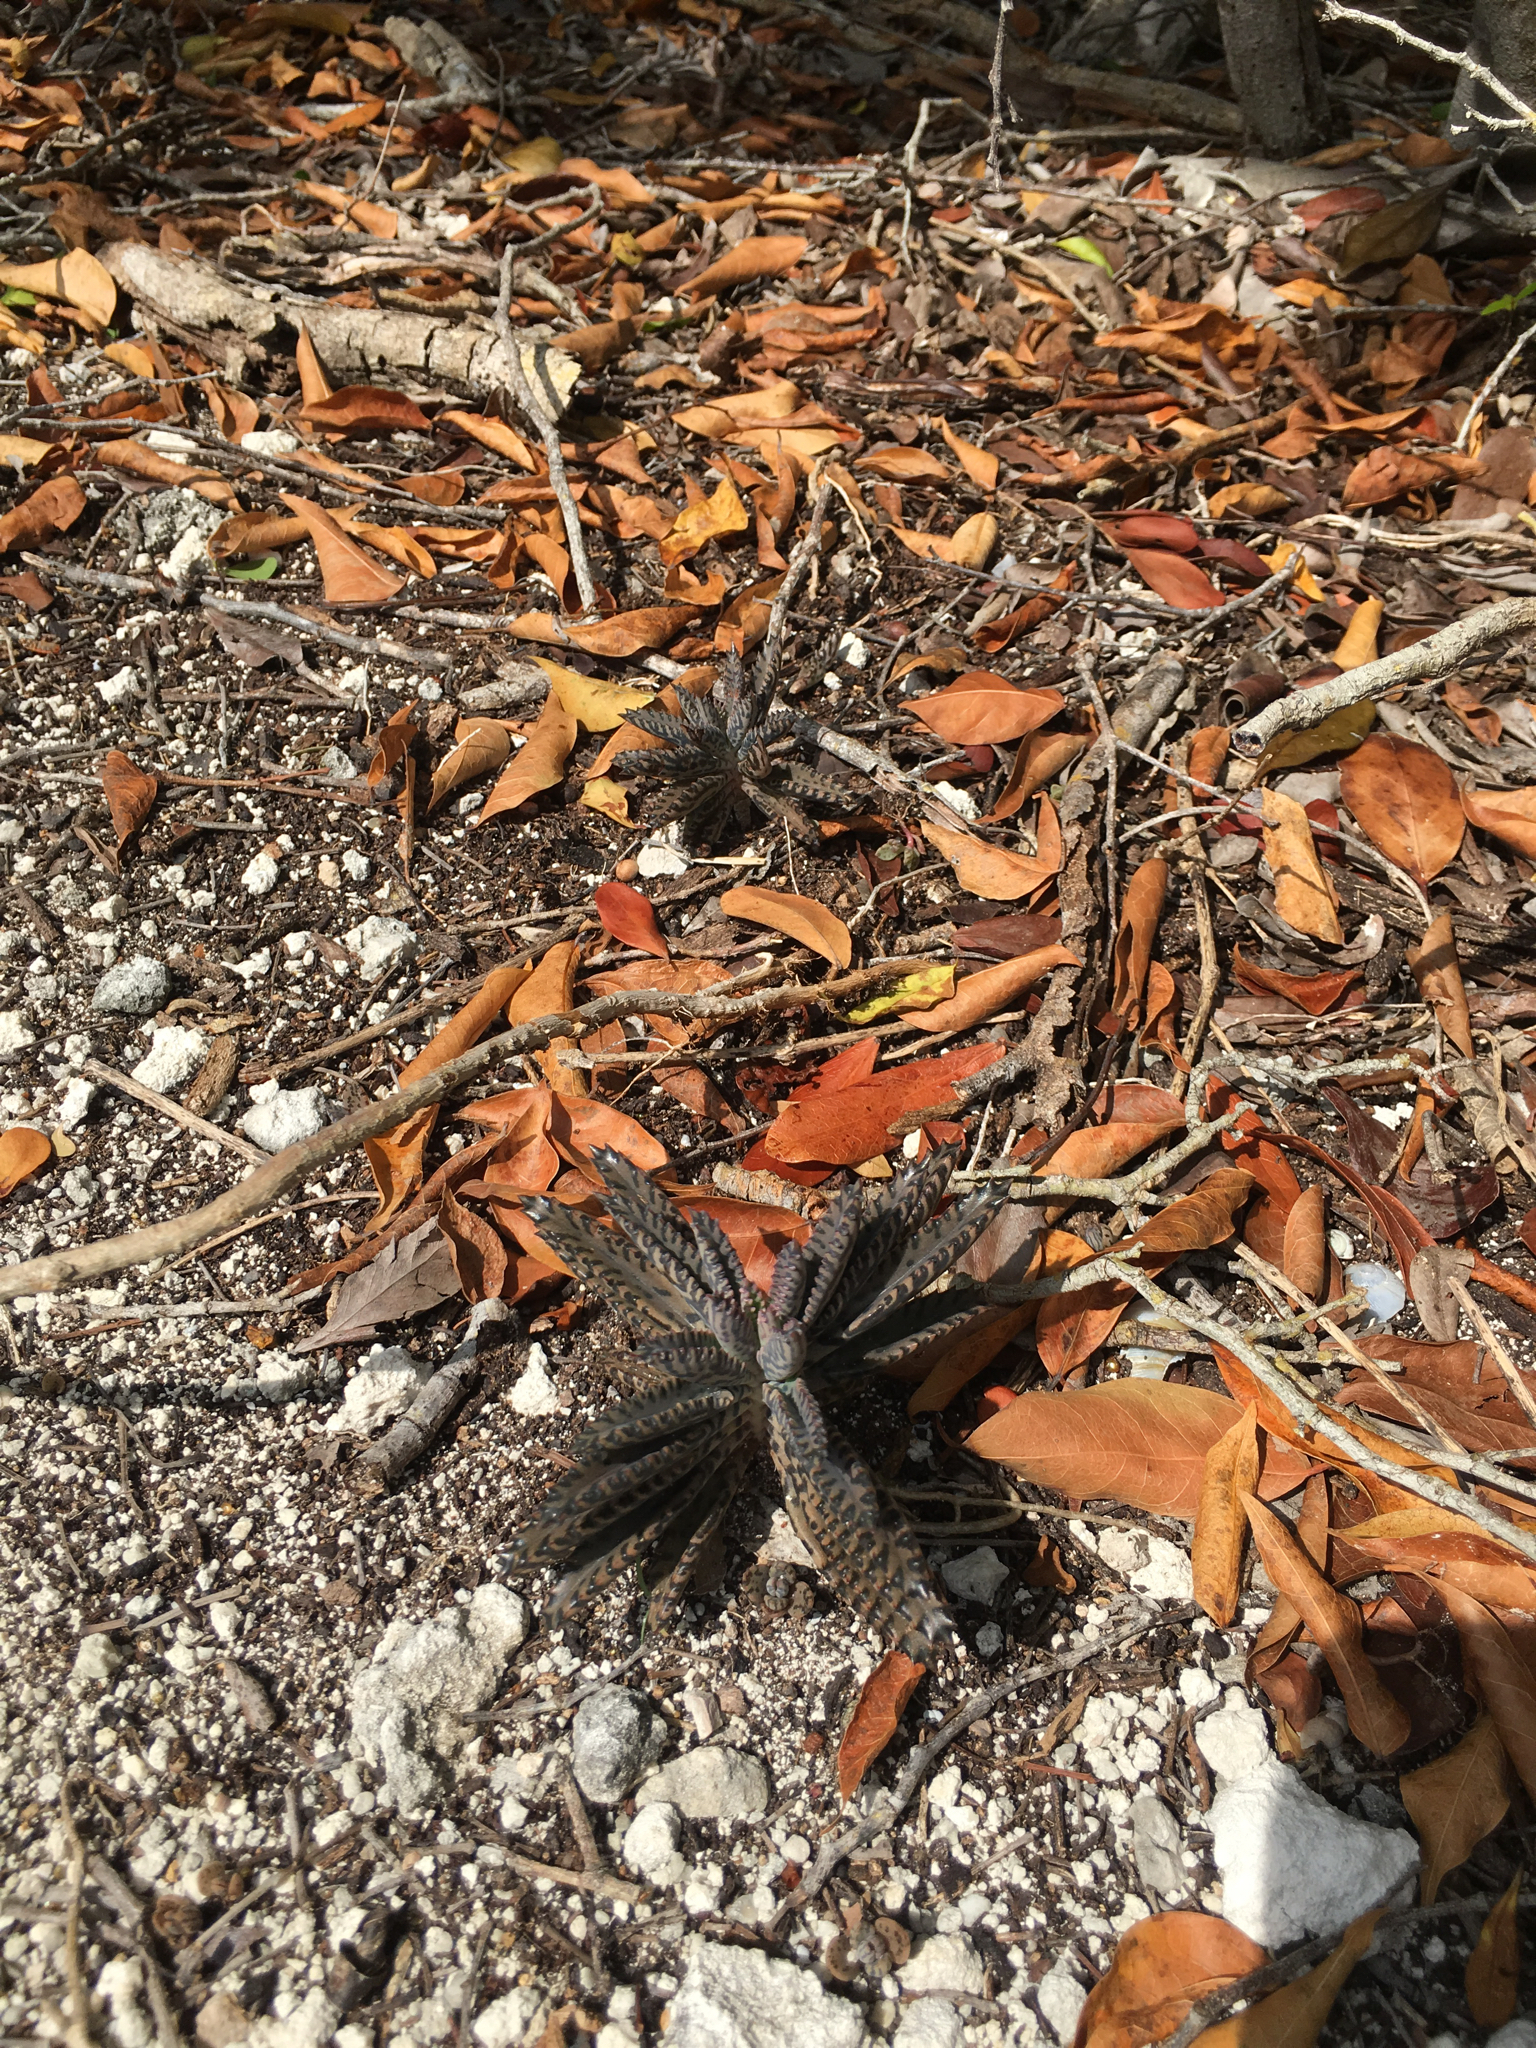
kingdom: Plantae
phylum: Tracheophyta
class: Magnoliopsida
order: Saxifragales
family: Crassulaceae
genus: Kalanchoe
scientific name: Kalanchoe houghtonii
